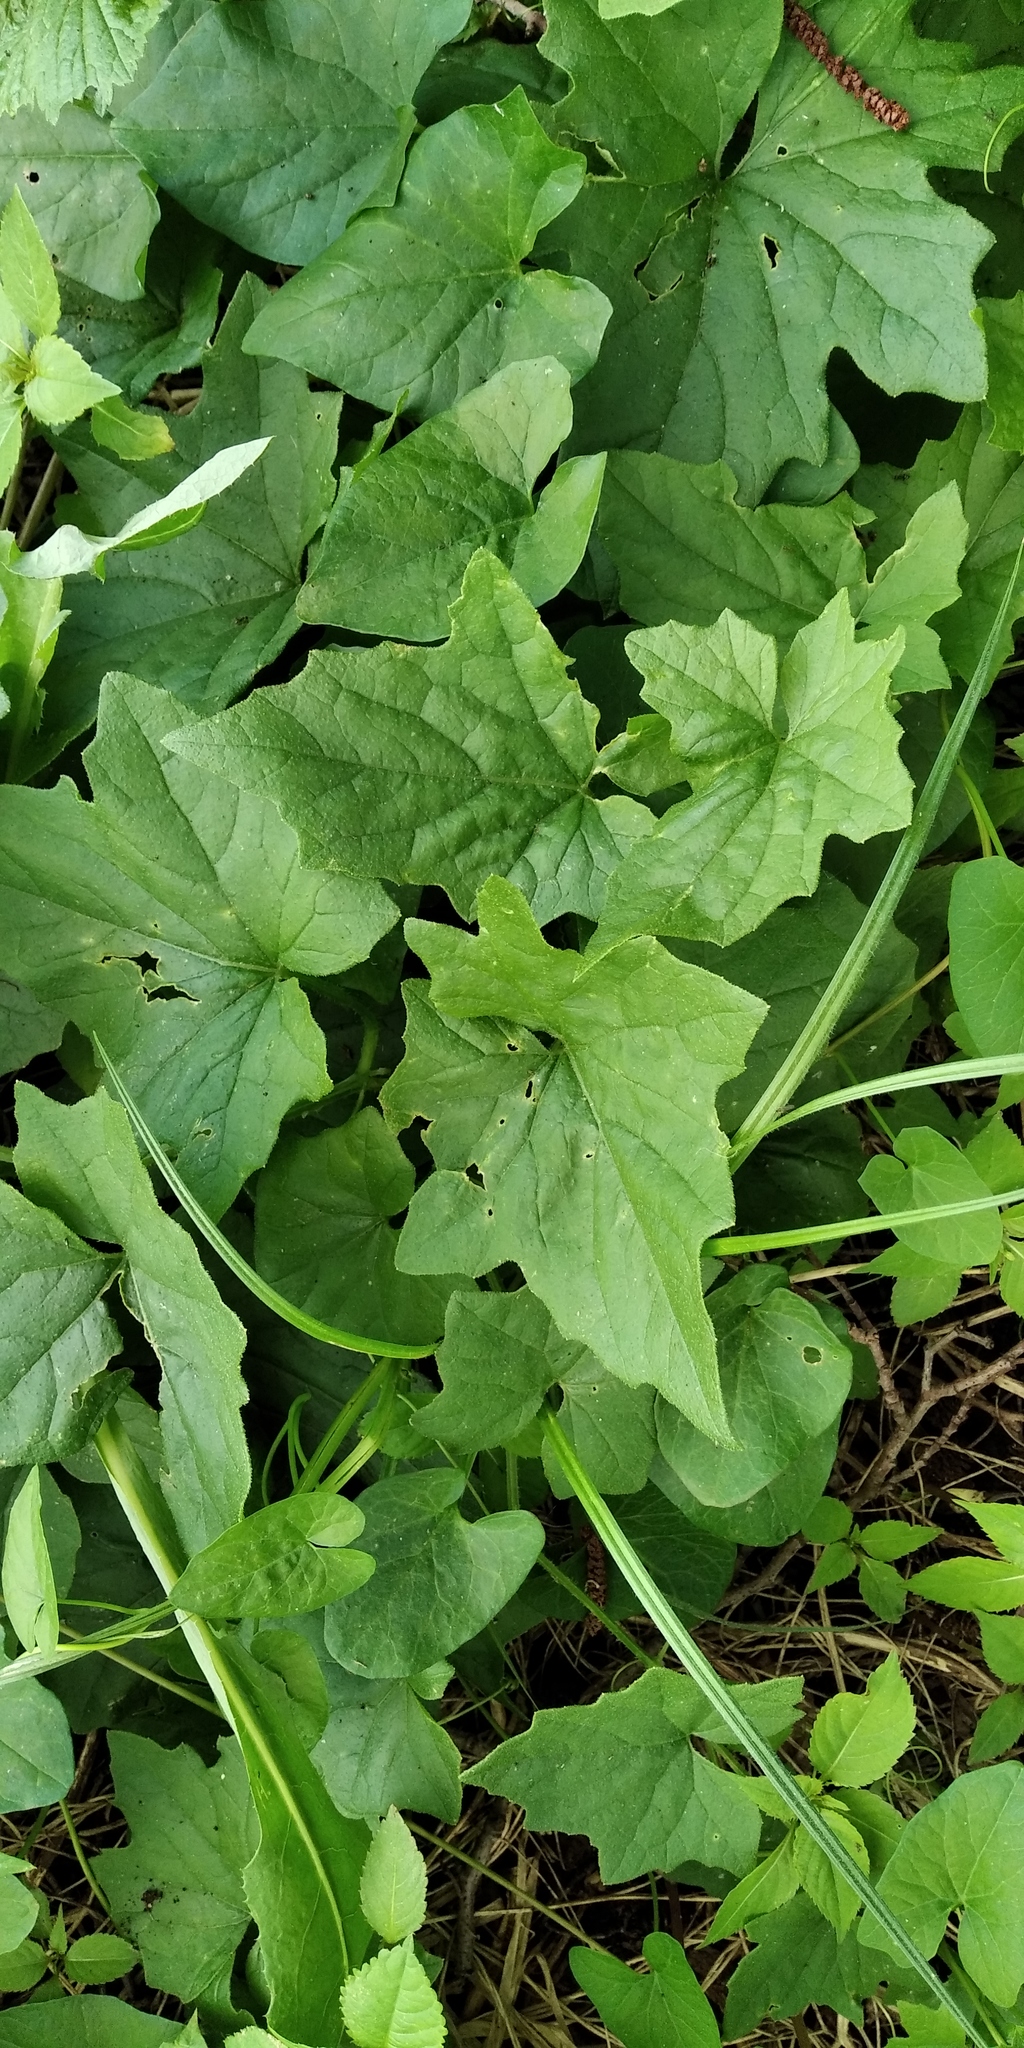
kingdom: Plantae
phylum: Tracheophyta
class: Magnoliopsida
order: Cucurbitales
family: Cucurbitaceae
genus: Echinocystis
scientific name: Echinocystis lobata
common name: Wild cucumber
